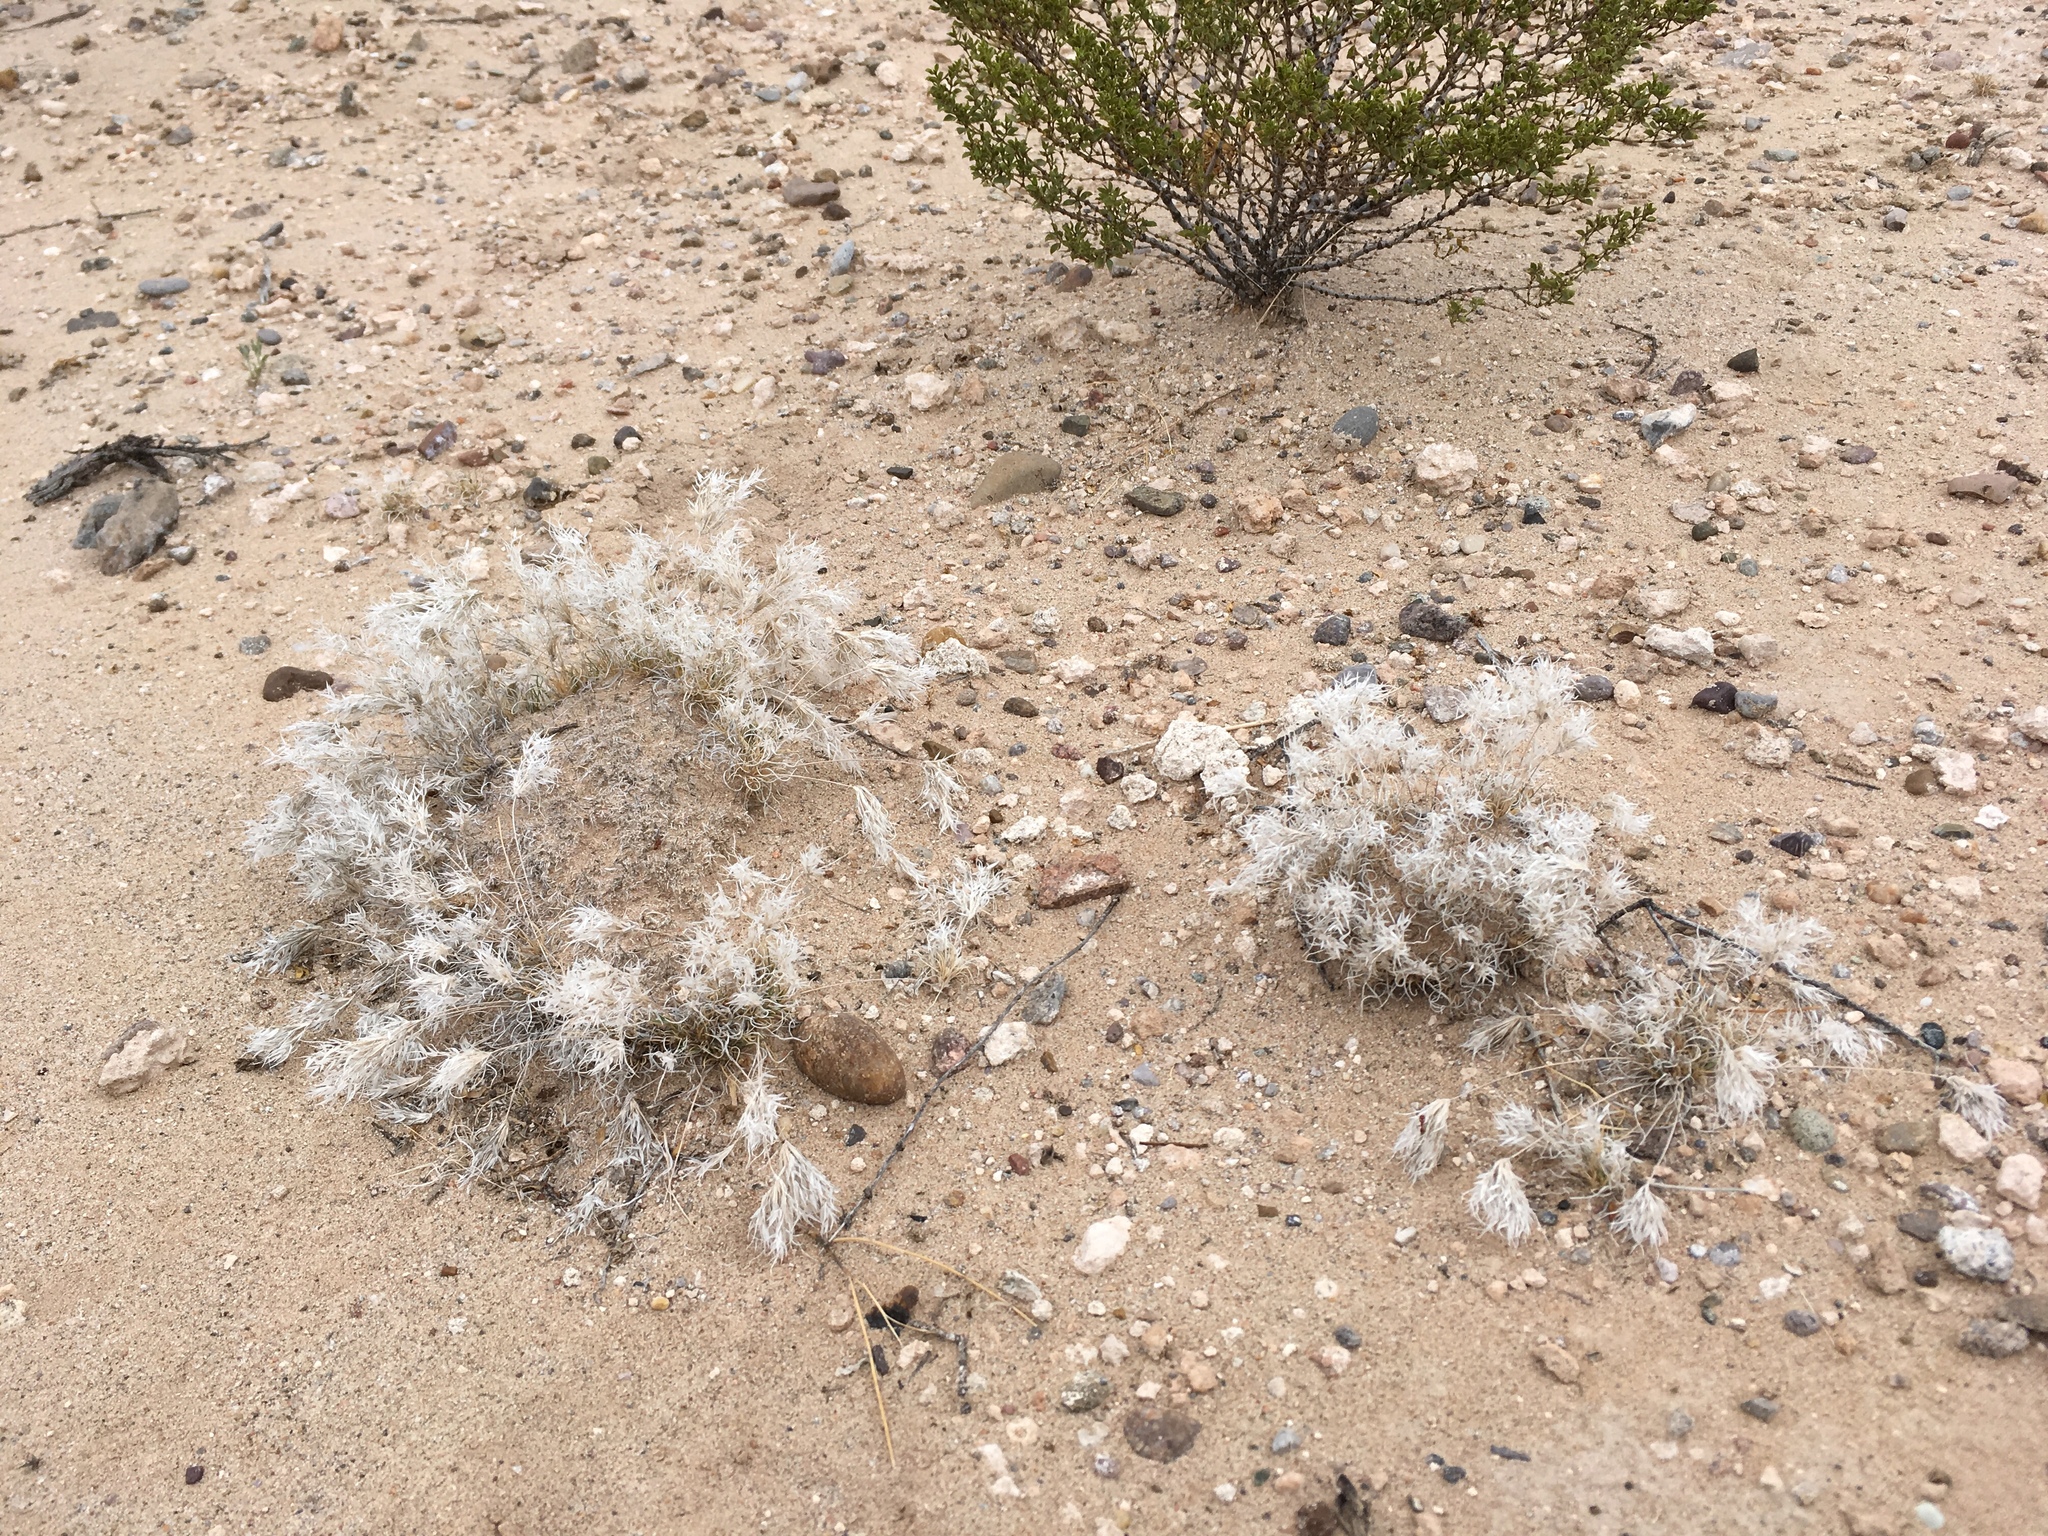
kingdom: Plantae
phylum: Tracheophyta
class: Liliopsida
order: Poales
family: Poaceae
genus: Dasyochloa
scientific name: Dasyochloa pulchella
